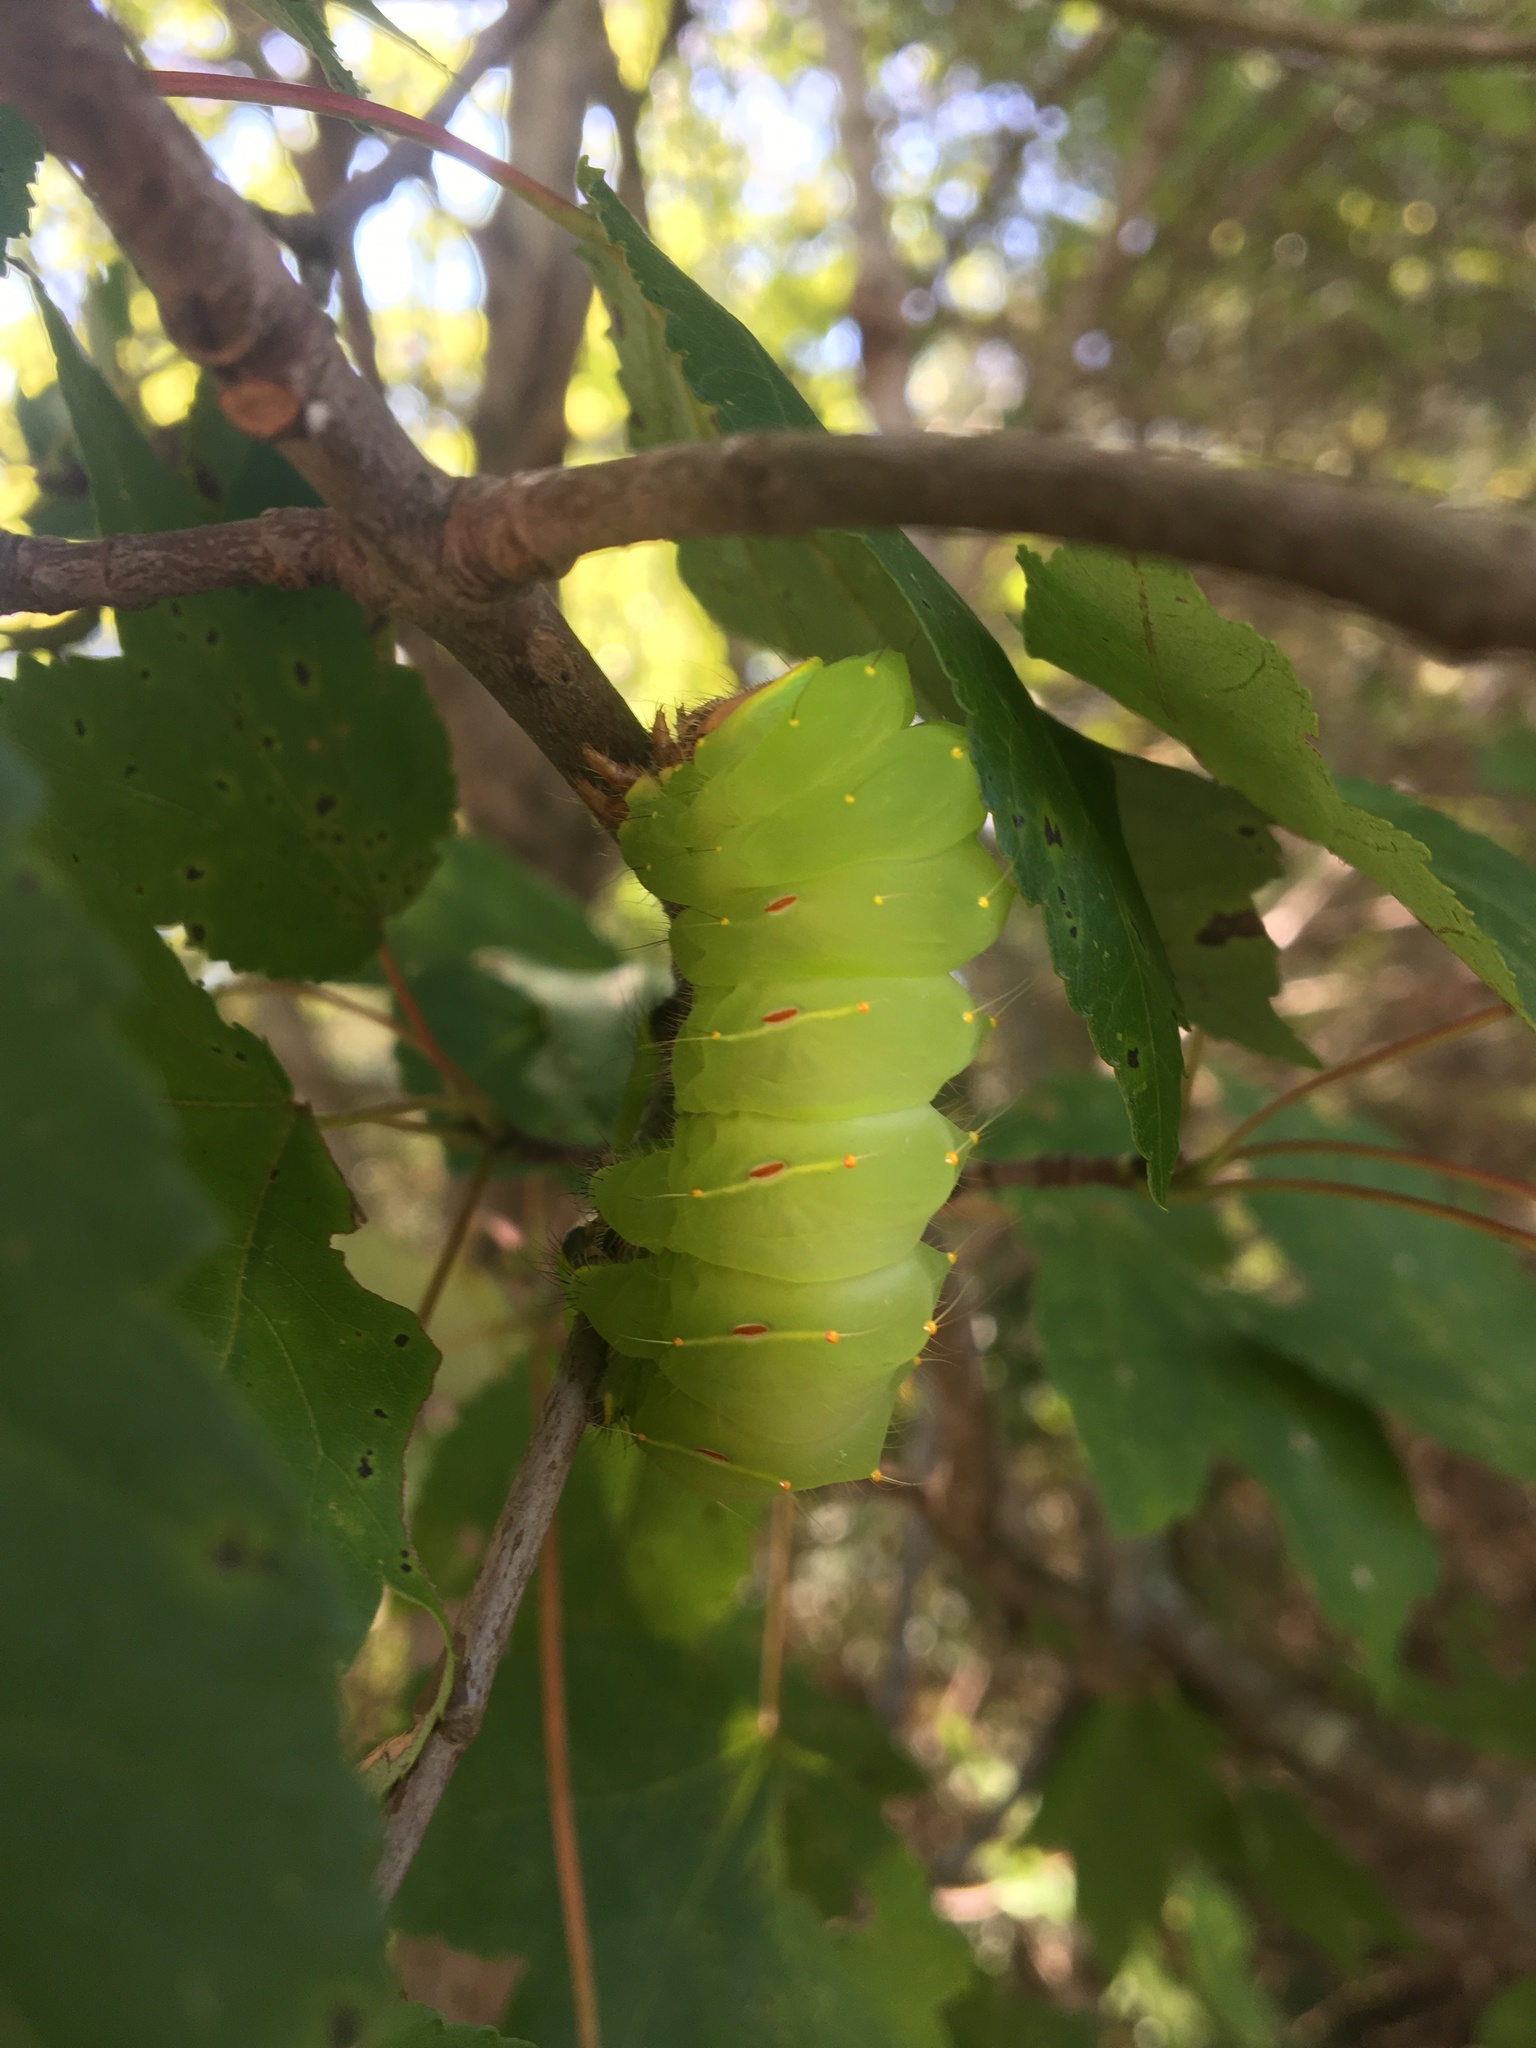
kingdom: Animalia
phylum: Arthropoda
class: Insecta
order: Lepidoptera
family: Saturniidae
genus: Antheraea
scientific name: Antheraea polyphemus
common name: Polyphemus moth
